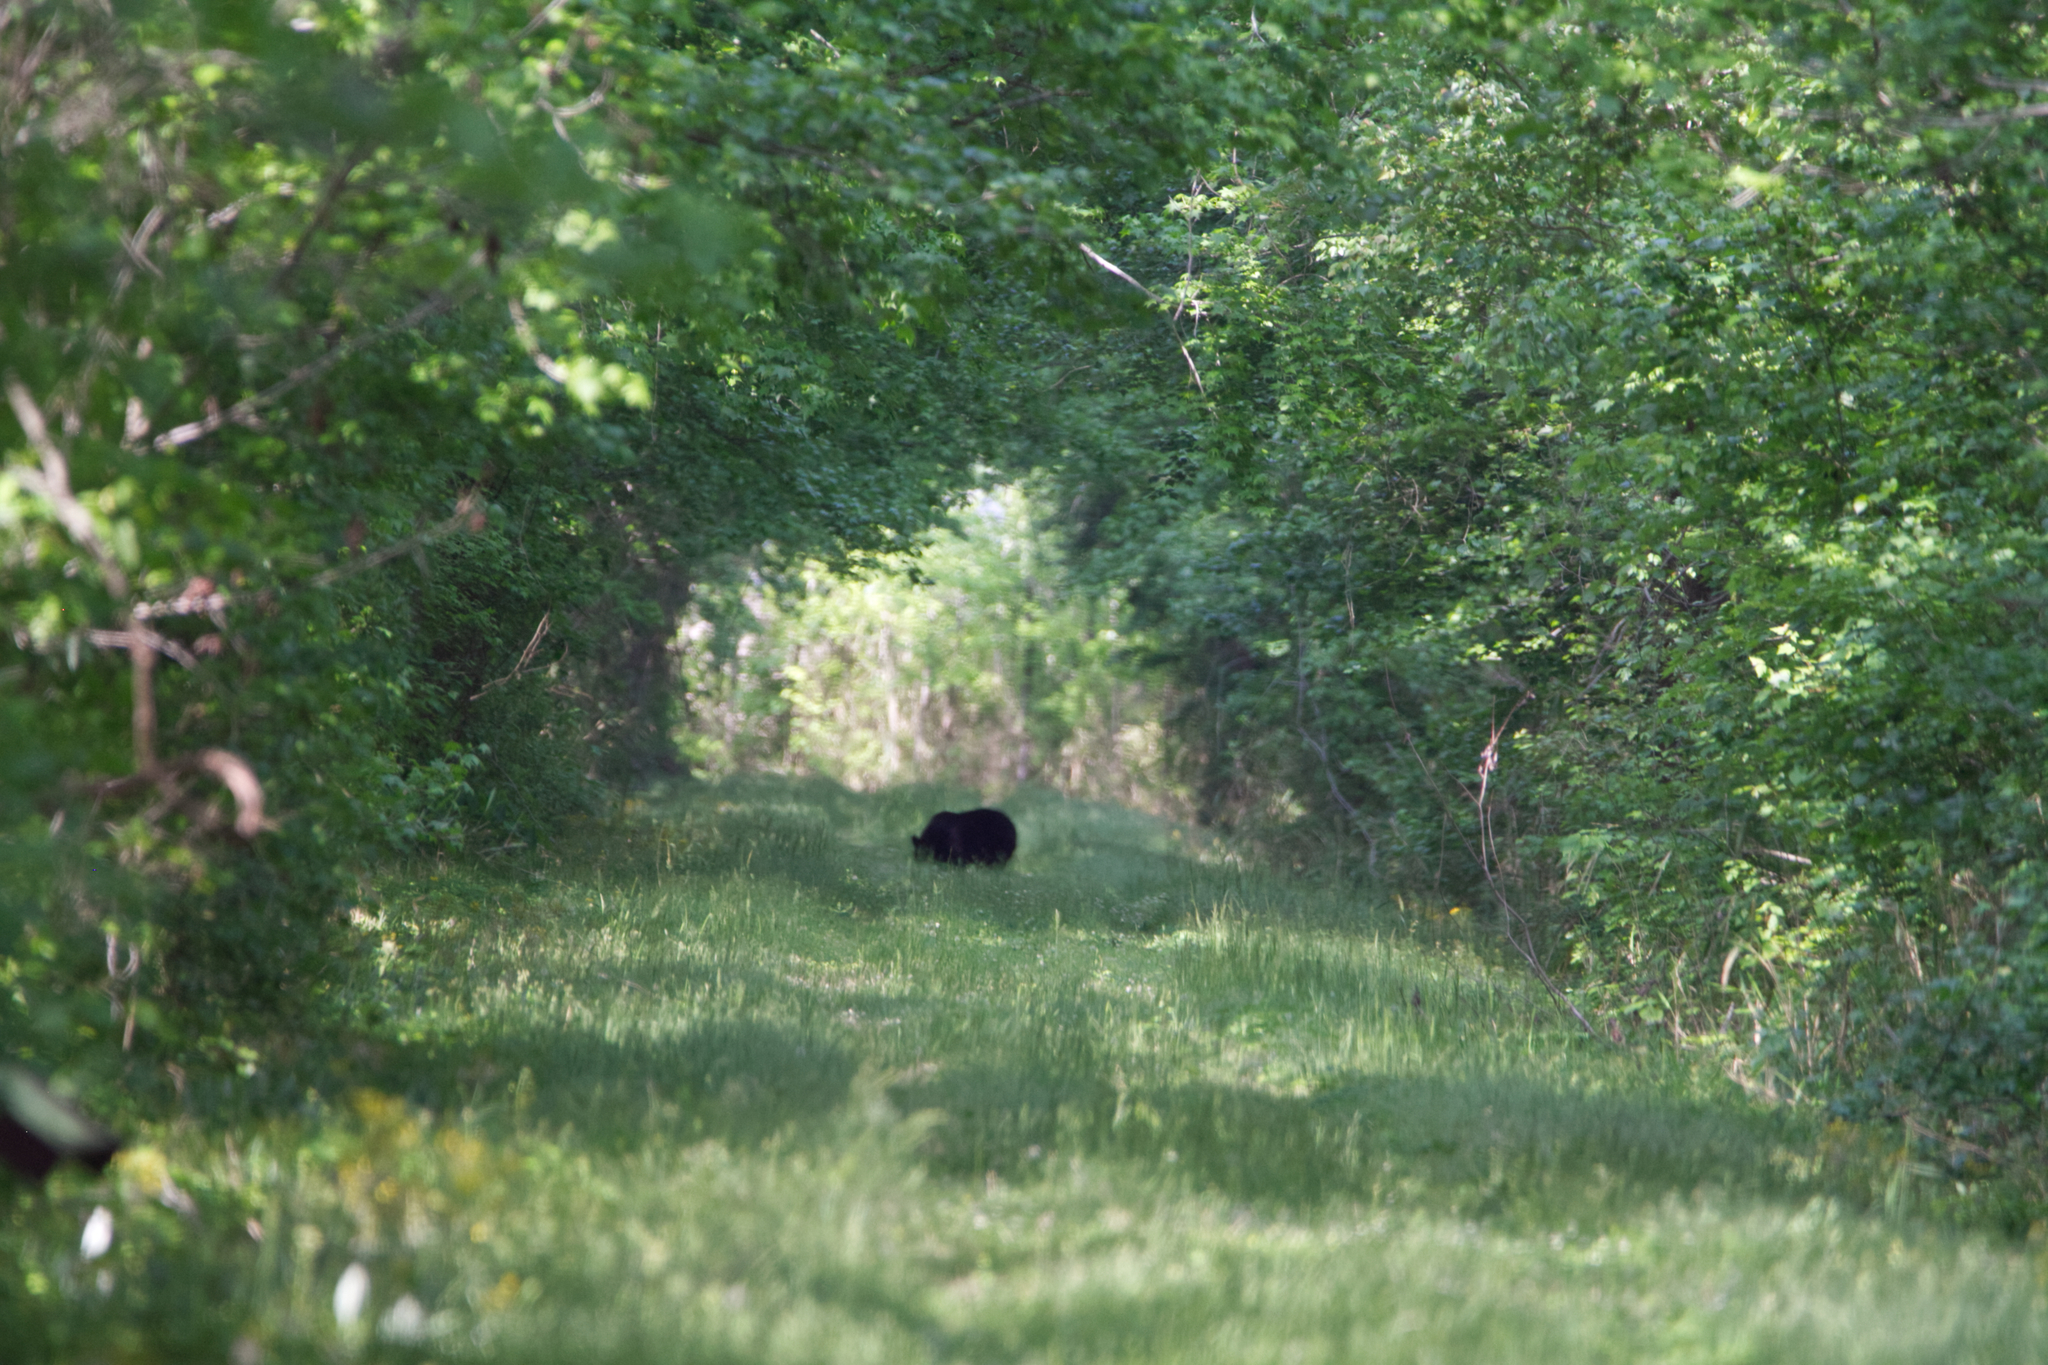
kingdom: Animalia
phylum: Chordata
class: Mammalia
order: Carnivora
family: Ursidae
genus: Ursus
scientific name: Ursus americanus
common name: American black bear
